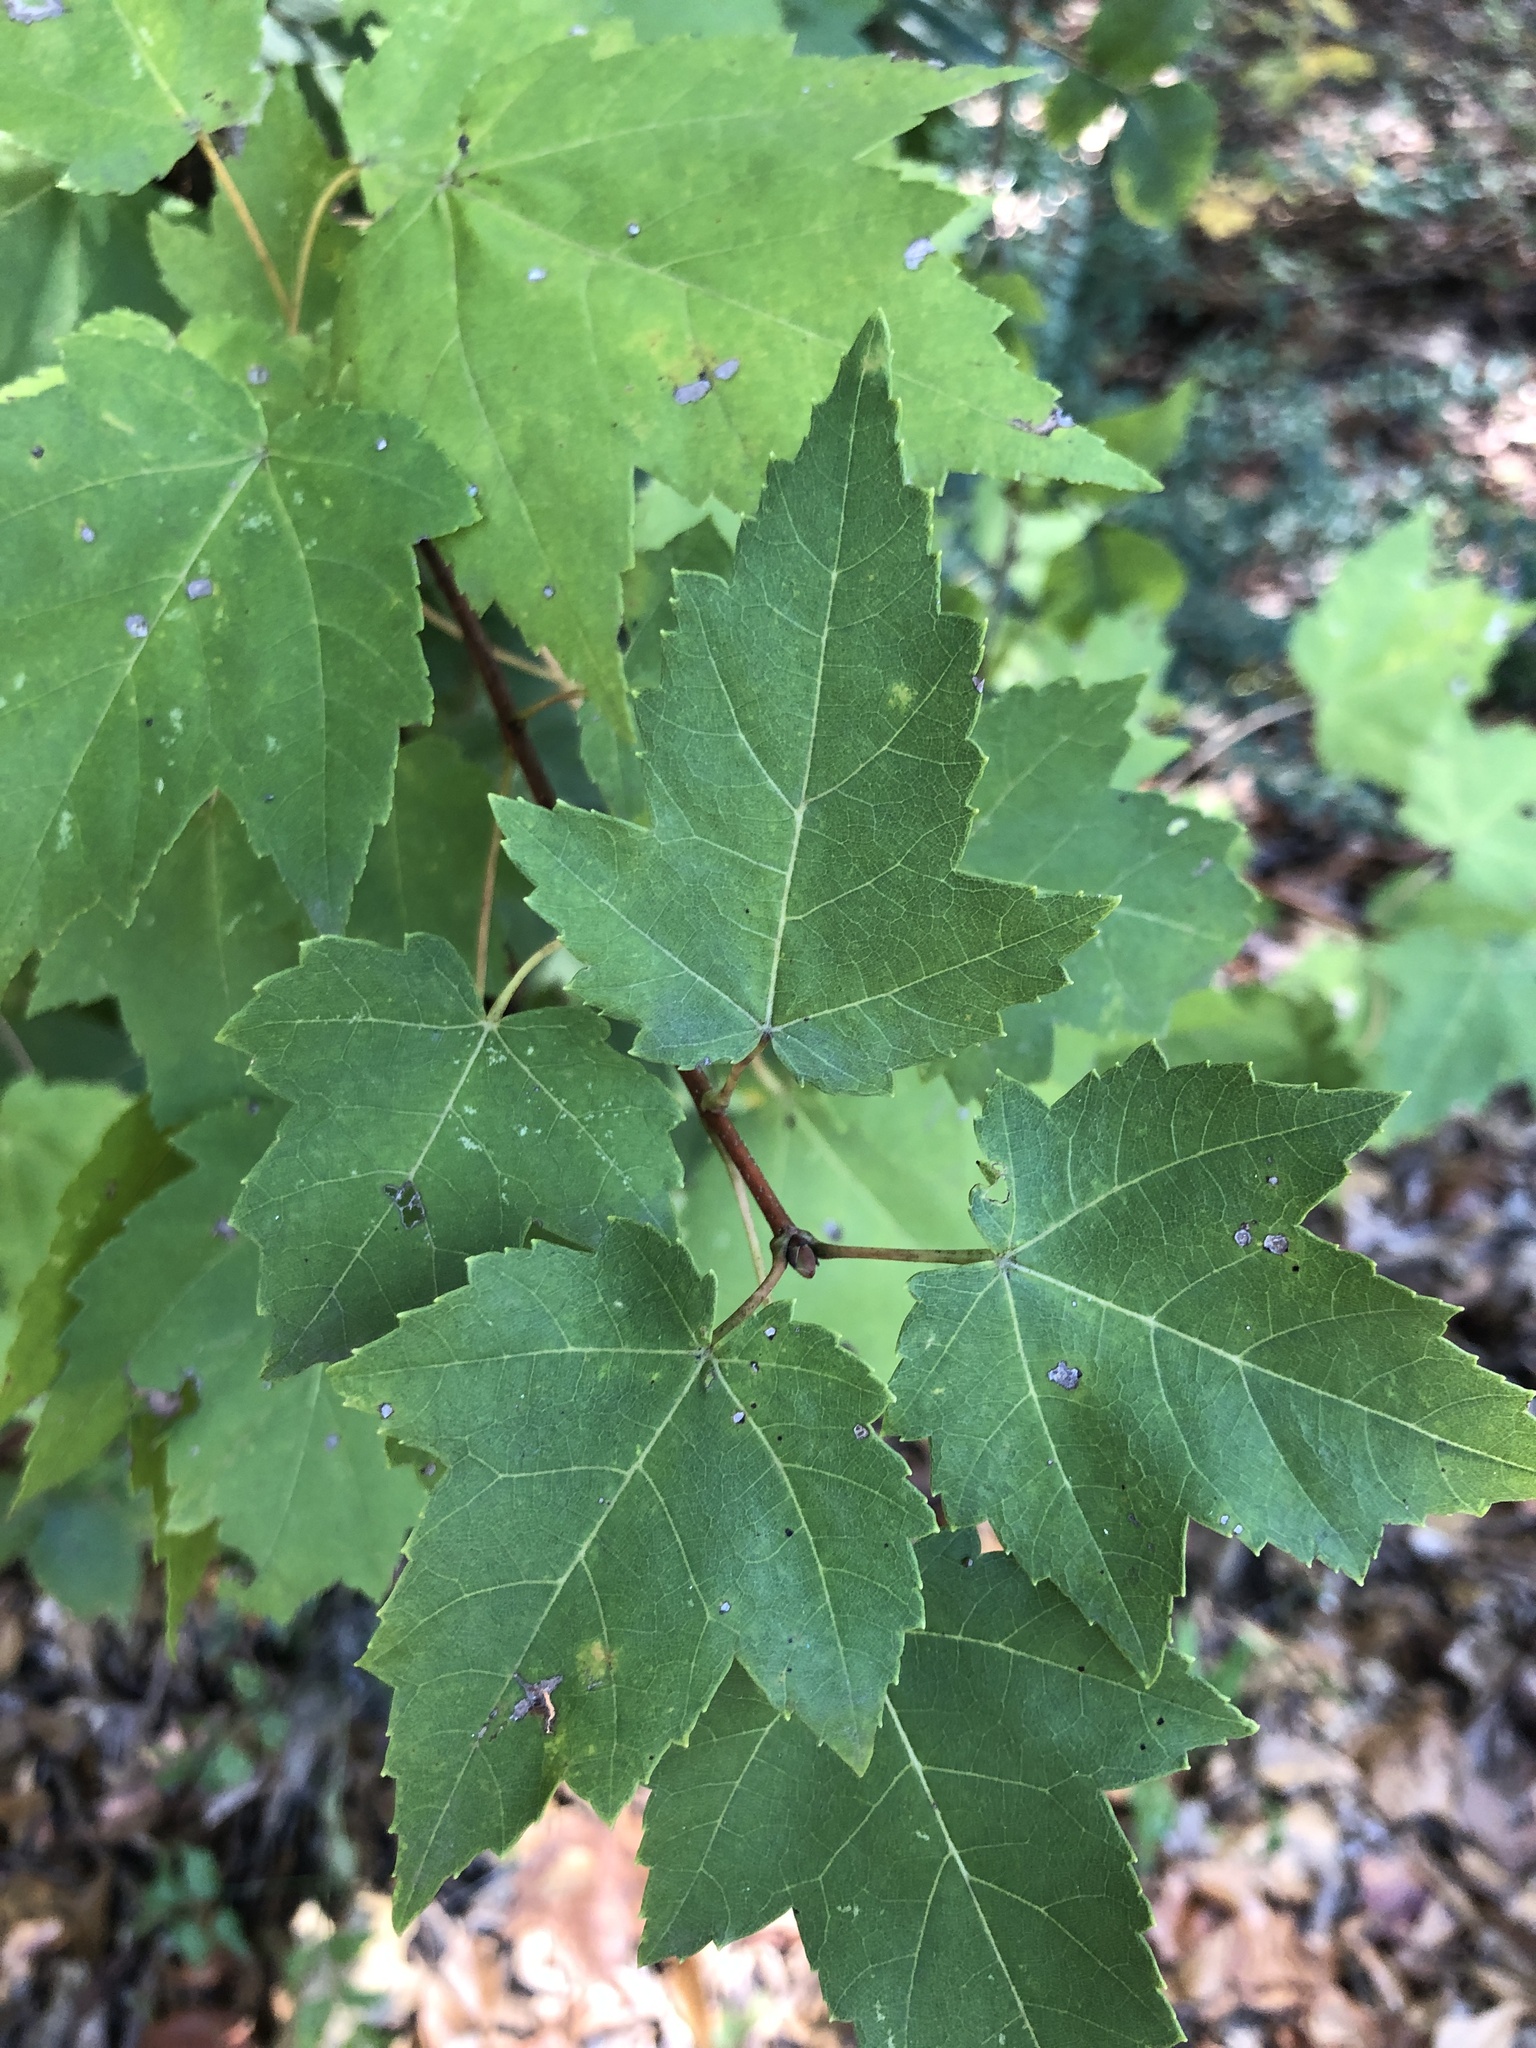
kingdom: Plantae
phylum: Tracheophyta
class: Magnoliopsida
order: Sapindales
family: Sapindaceae
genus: Acer
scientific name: Acer rubrum
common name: Red maple
